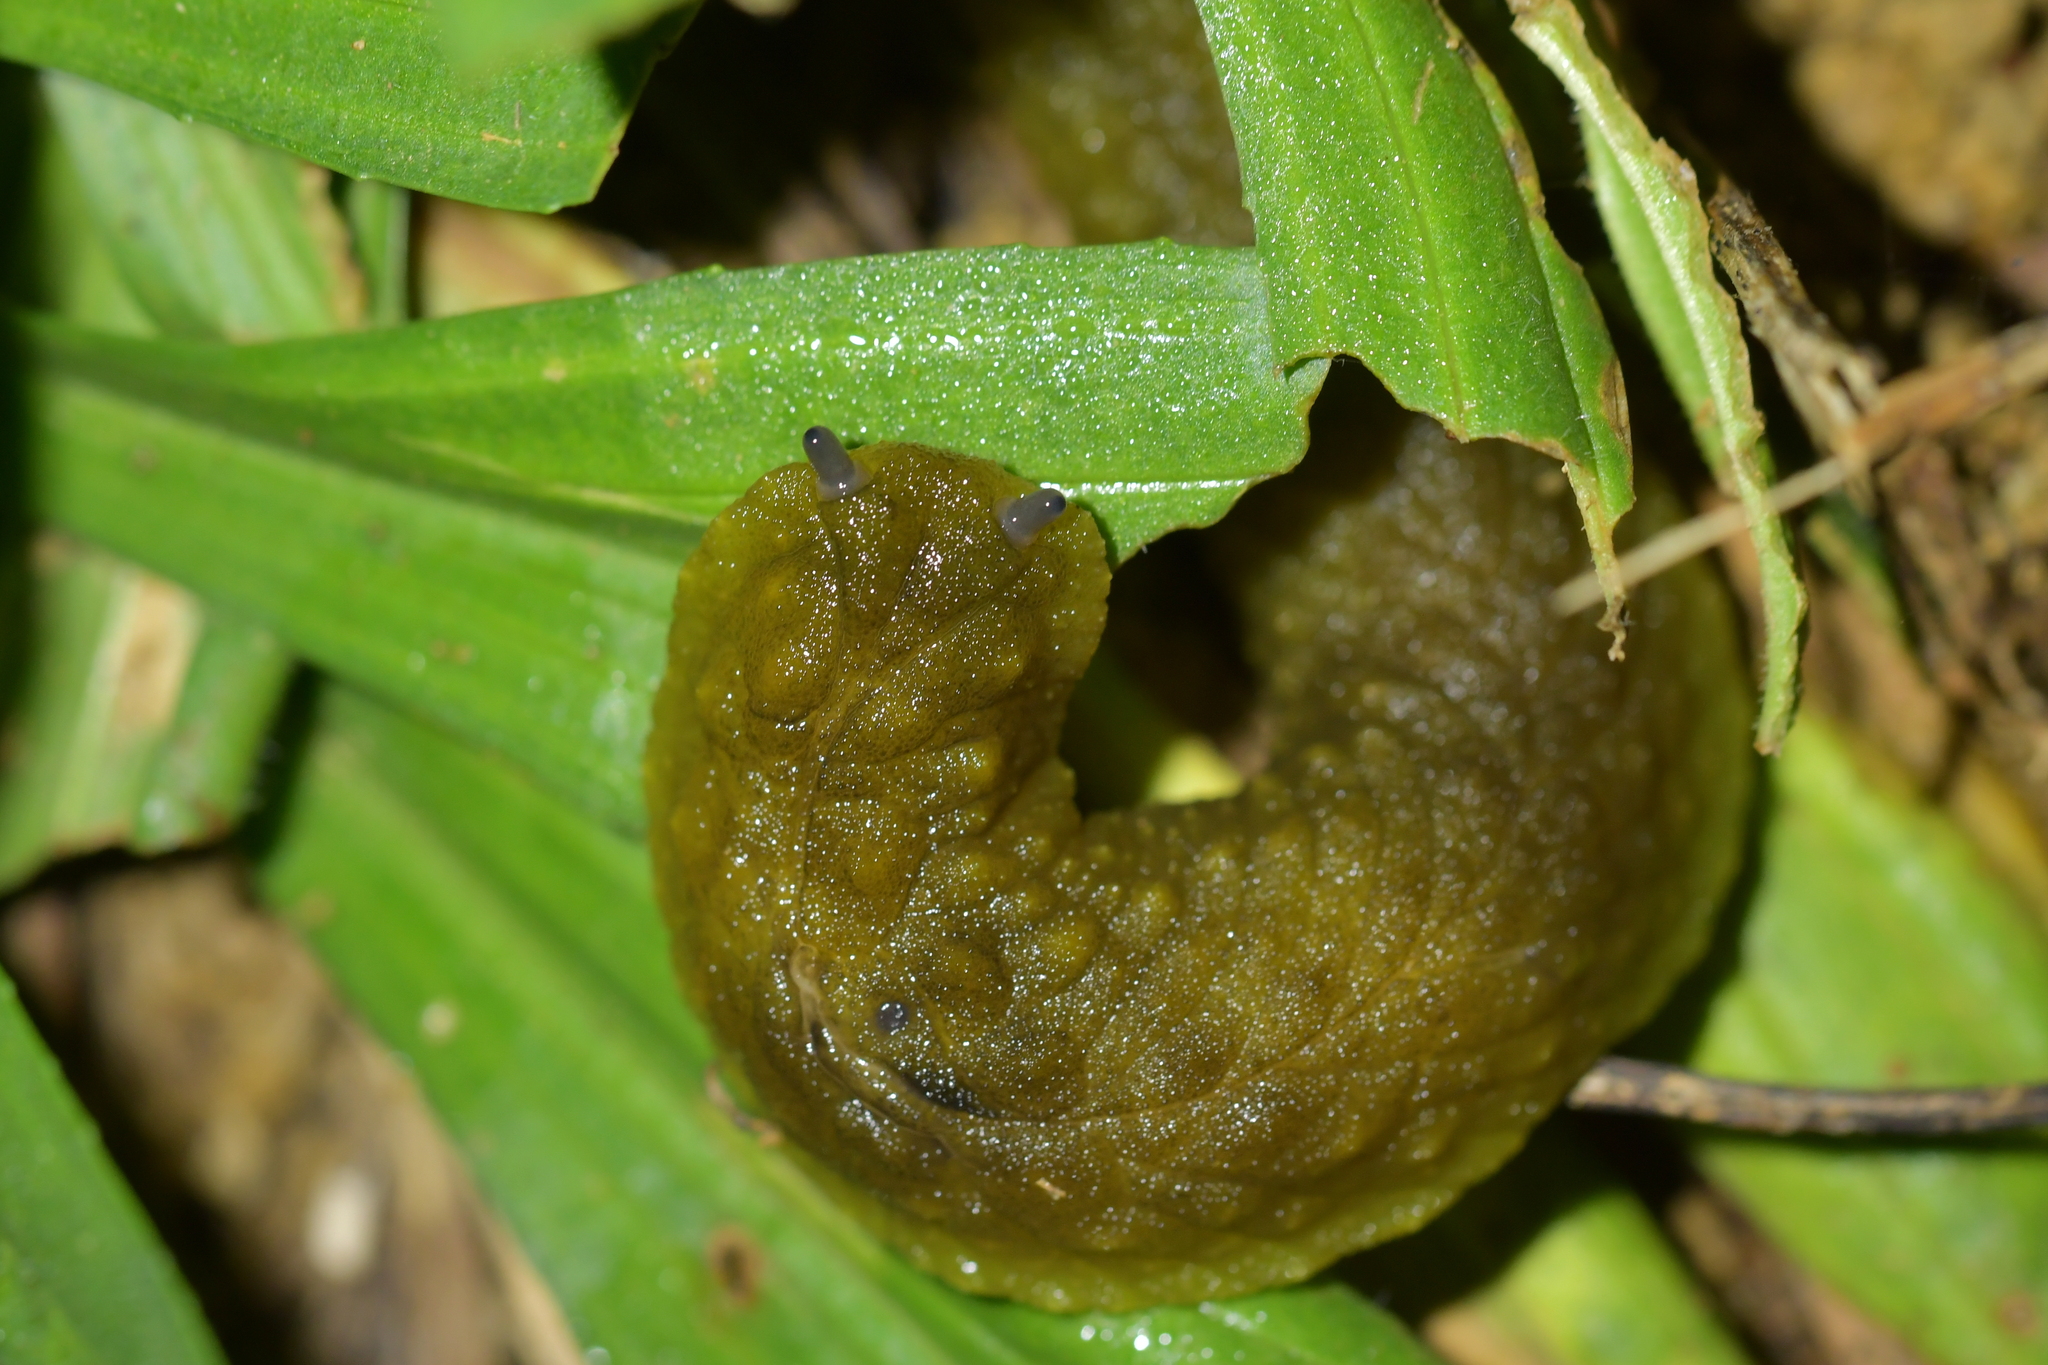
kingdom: Animalia
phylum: Mollusca
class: Gastropoda
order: Stylommatophora
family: Athoracophoridae
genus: Athoracophorus
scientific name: Athoracophorus papillatus
